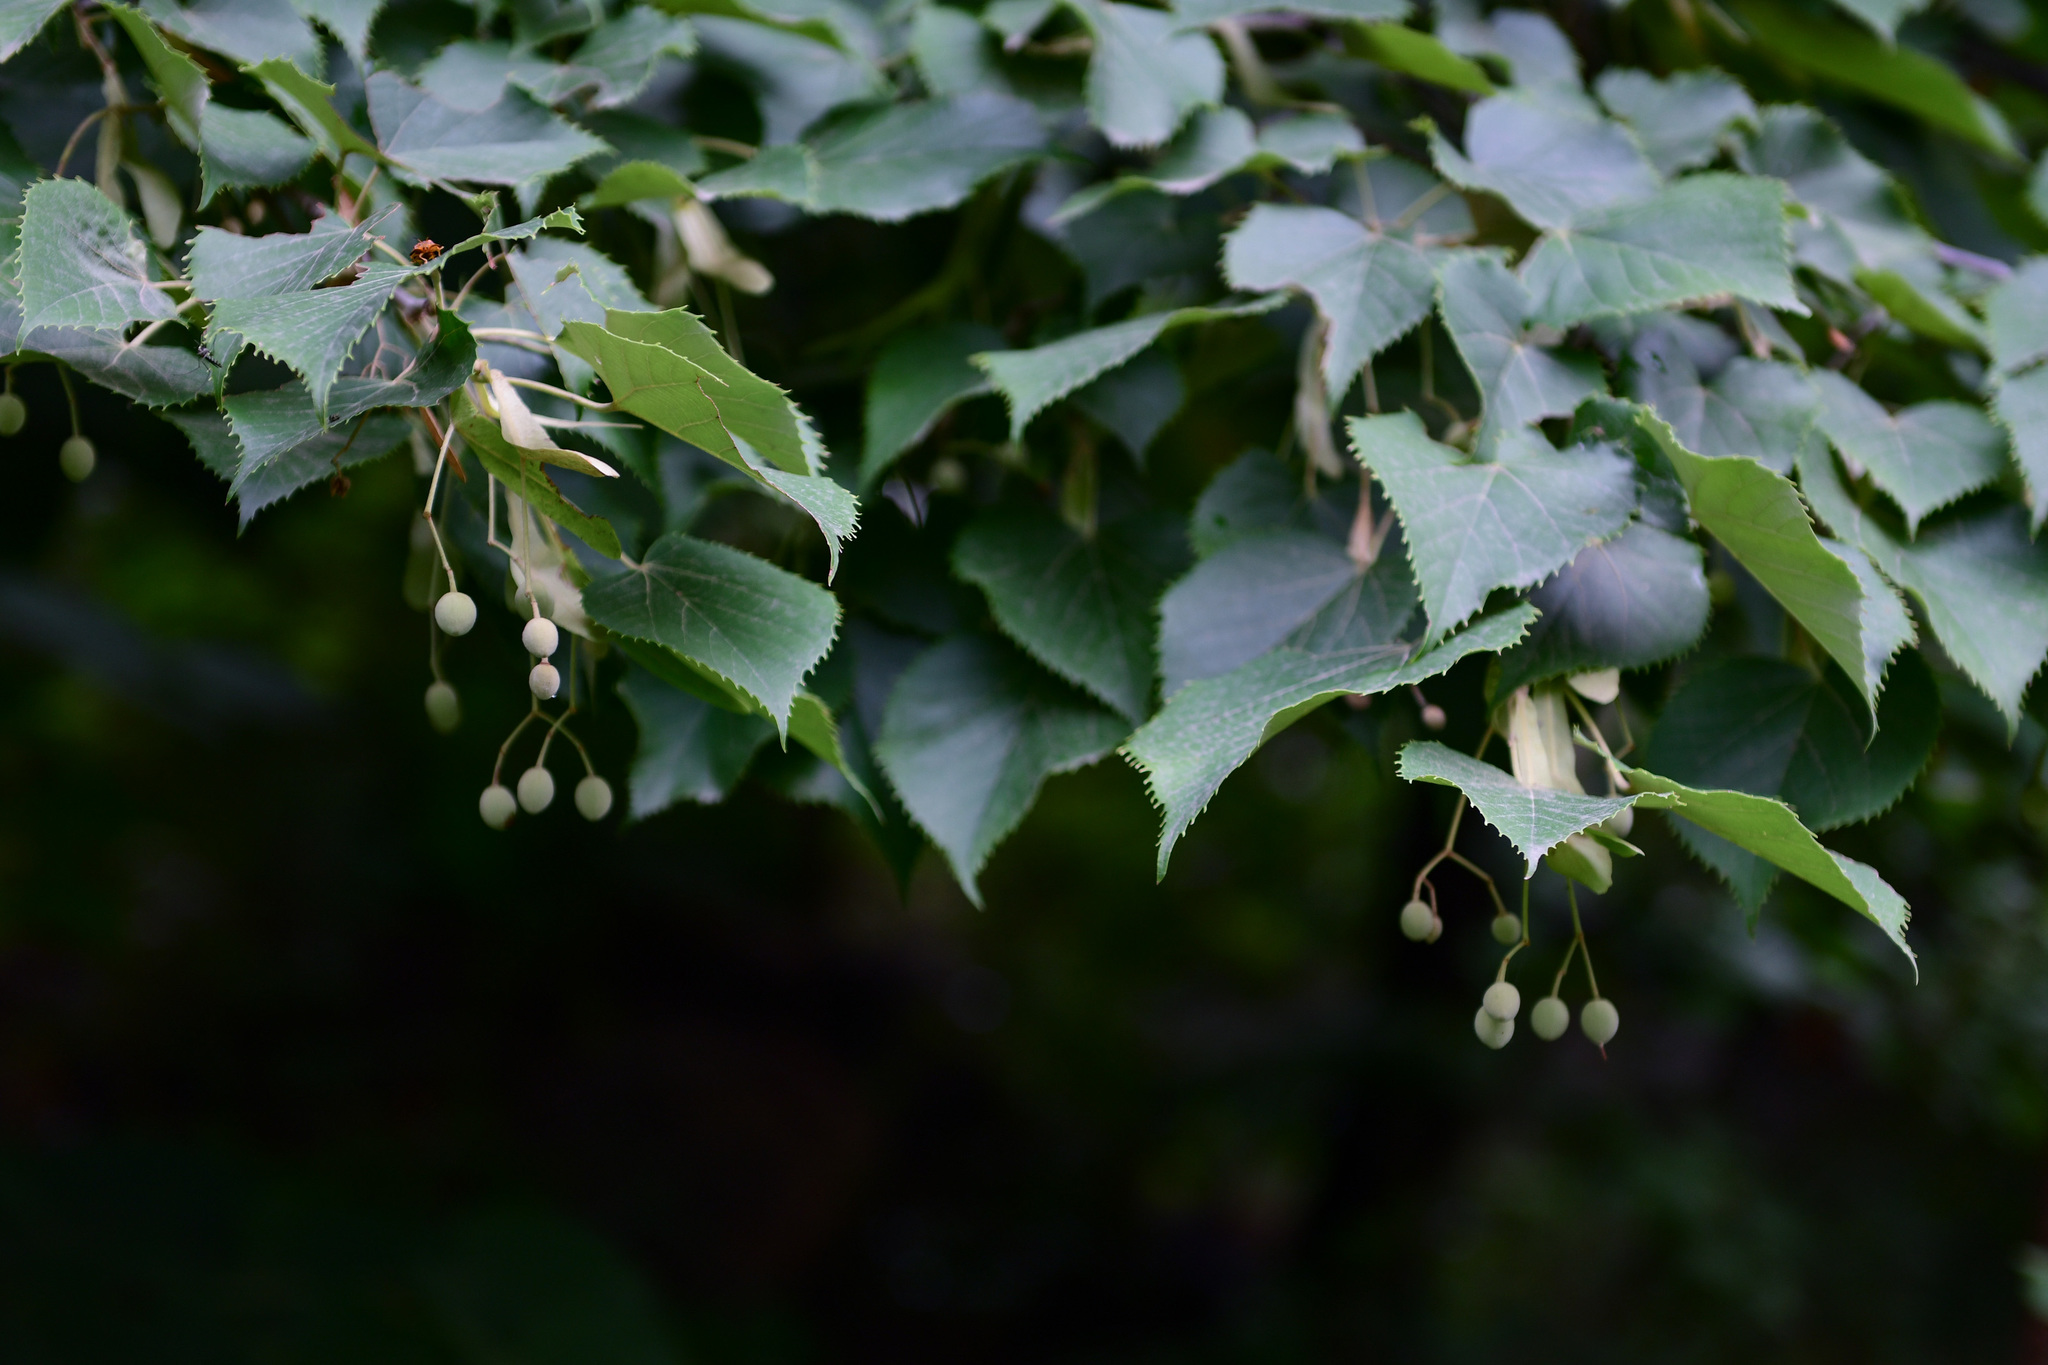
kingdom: Plantae
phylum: Tracheophyta
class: Magnoliopsida
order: Malvales
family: Malvaceae
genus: Tilia
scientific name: Tilia mandshurica
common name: Manchurian linden
